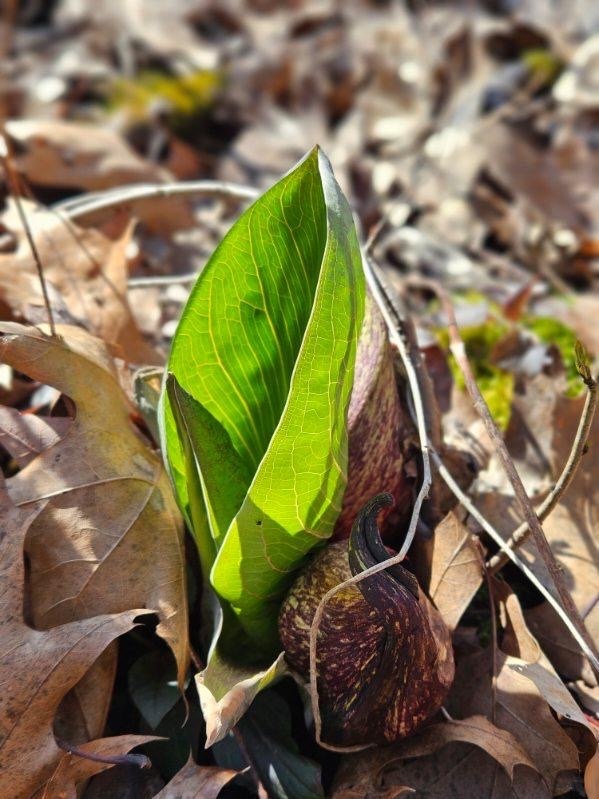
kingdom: Plantae
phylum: Tracheophyta
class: Liliopsida
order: Alismatales
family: Araceae
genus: Symplocarpus
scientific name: Symplocarpus foetidus
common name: Eastern skunk cabbage
